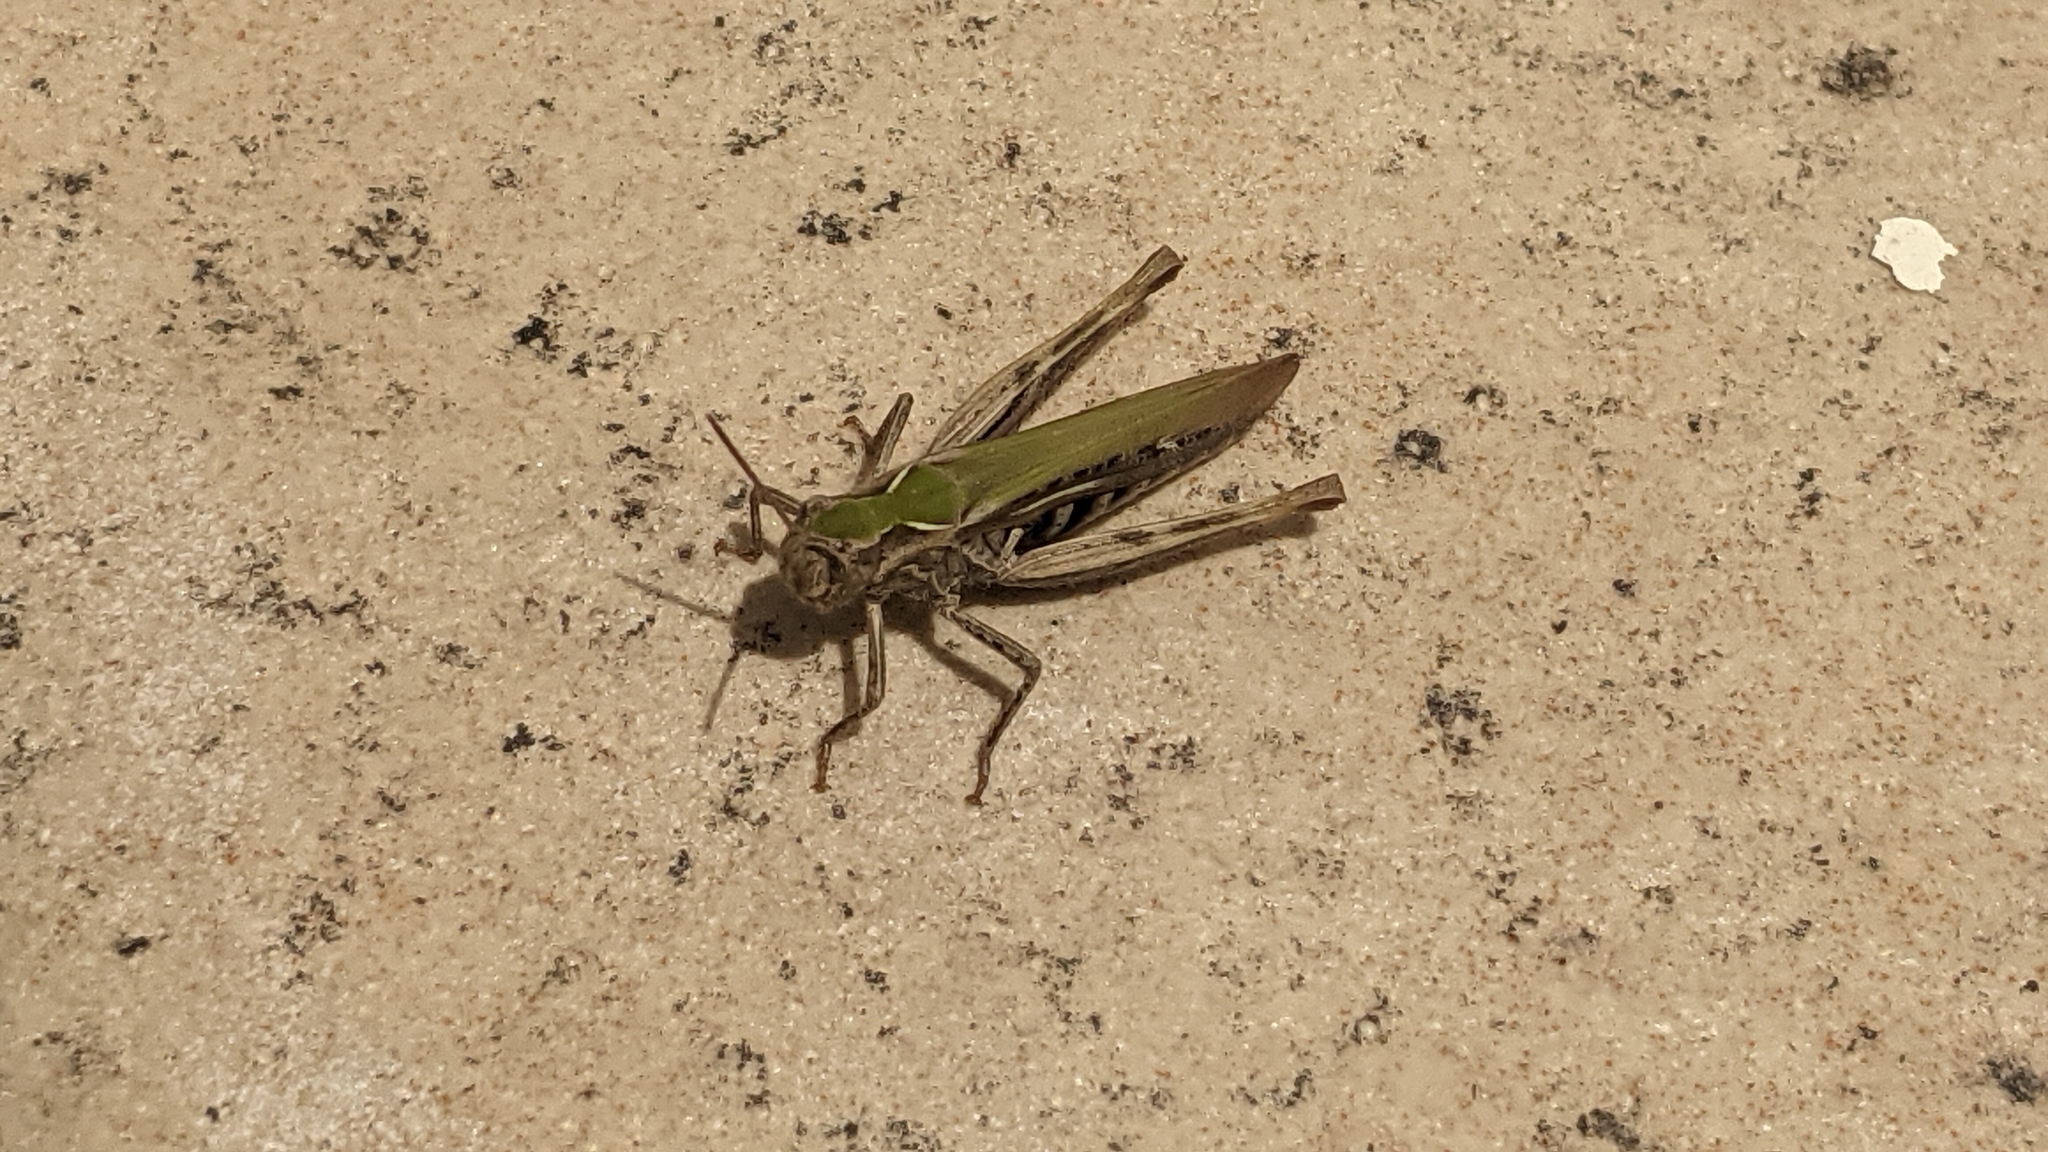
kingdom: Animalia
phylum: Arthropoda
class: Insecta
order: Orthoptera
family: Acrididae
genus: Chorthippus
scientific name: Chorthippus brunneus
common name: Field grasshopper
